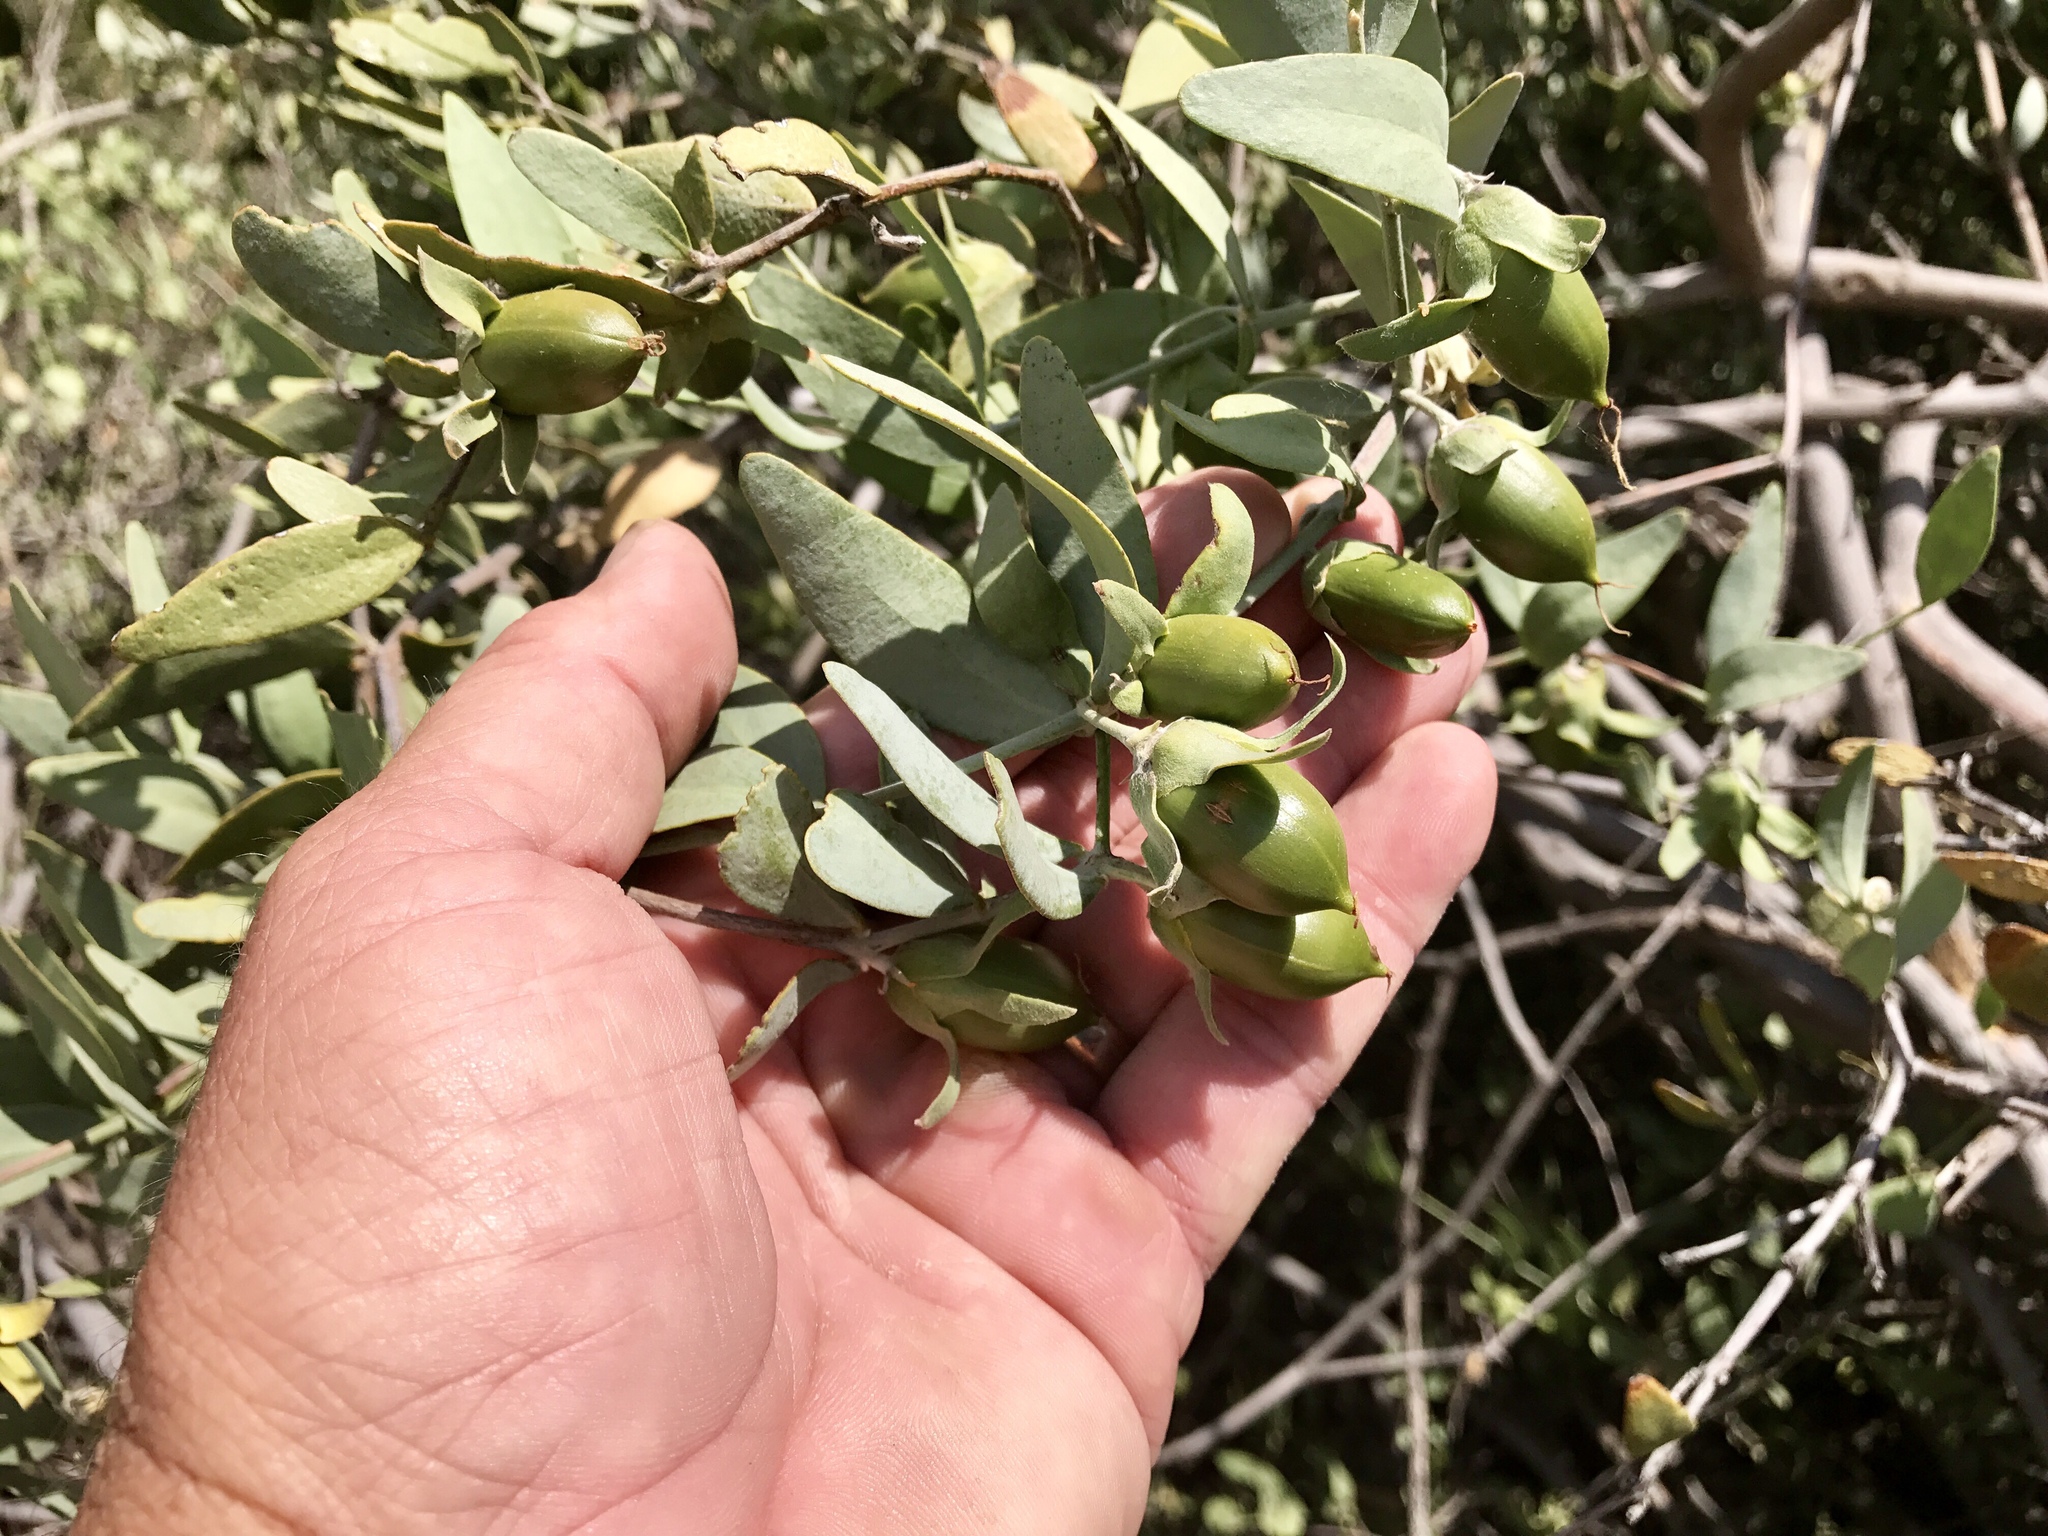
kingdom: Plantae
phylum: Tracheophyta
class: Magnoliopsida
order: Caryophyllales
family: Simmondsiaceae
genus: Simmondsia
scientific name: Simmondsia chinensis
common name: Jojoba
